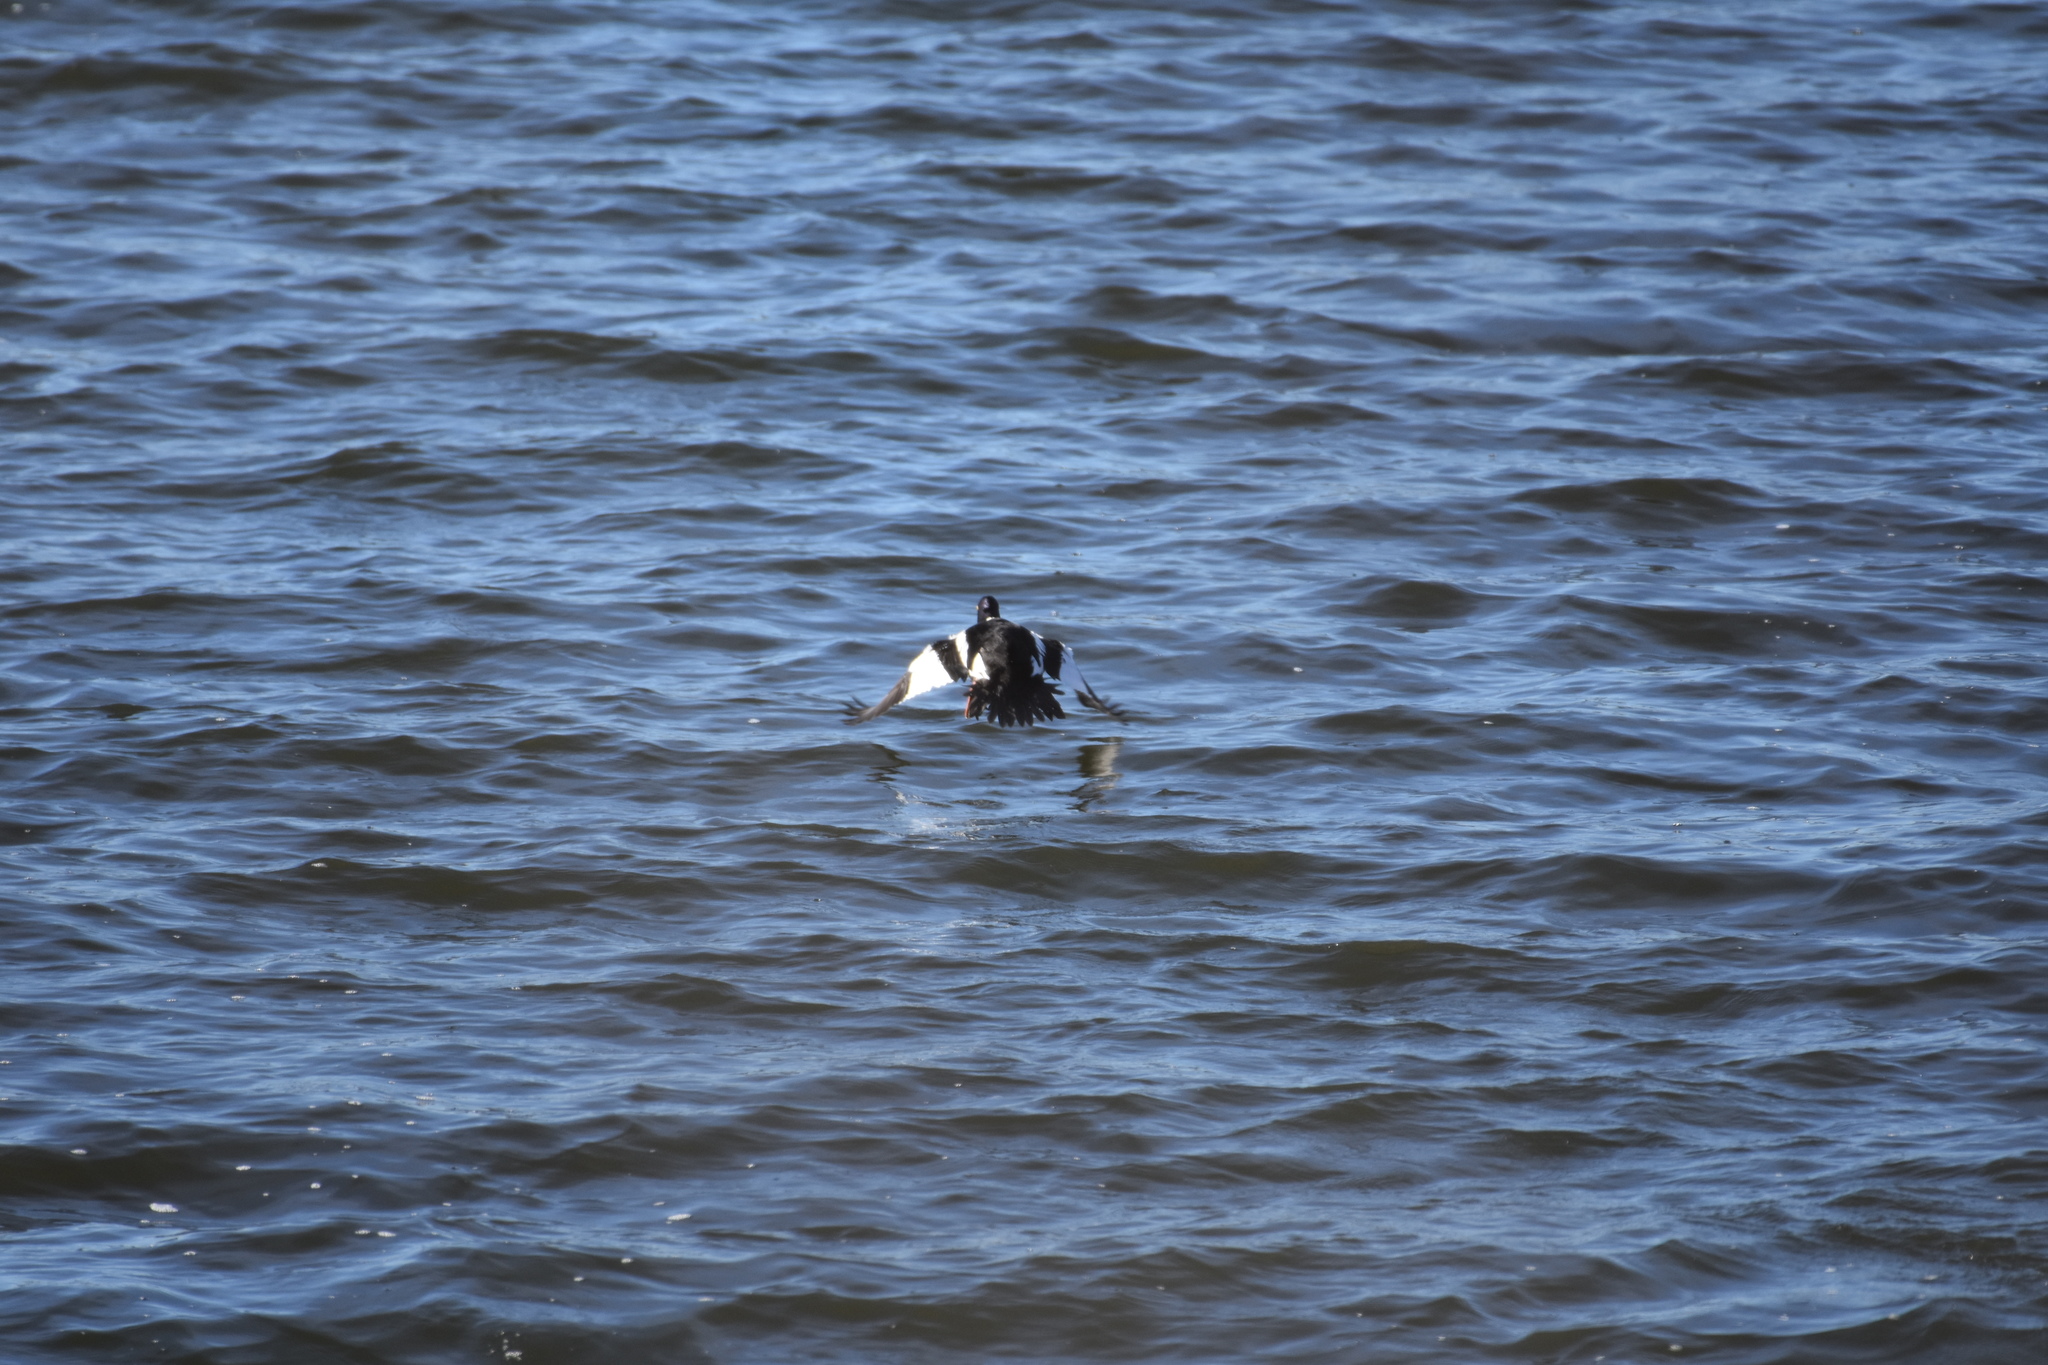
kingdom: Animalia
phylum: Chordata
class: Aves
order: Anseriformes
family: Anatidae
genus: Bucephala
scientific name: Bucephala clangula
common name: Common goldeneye
